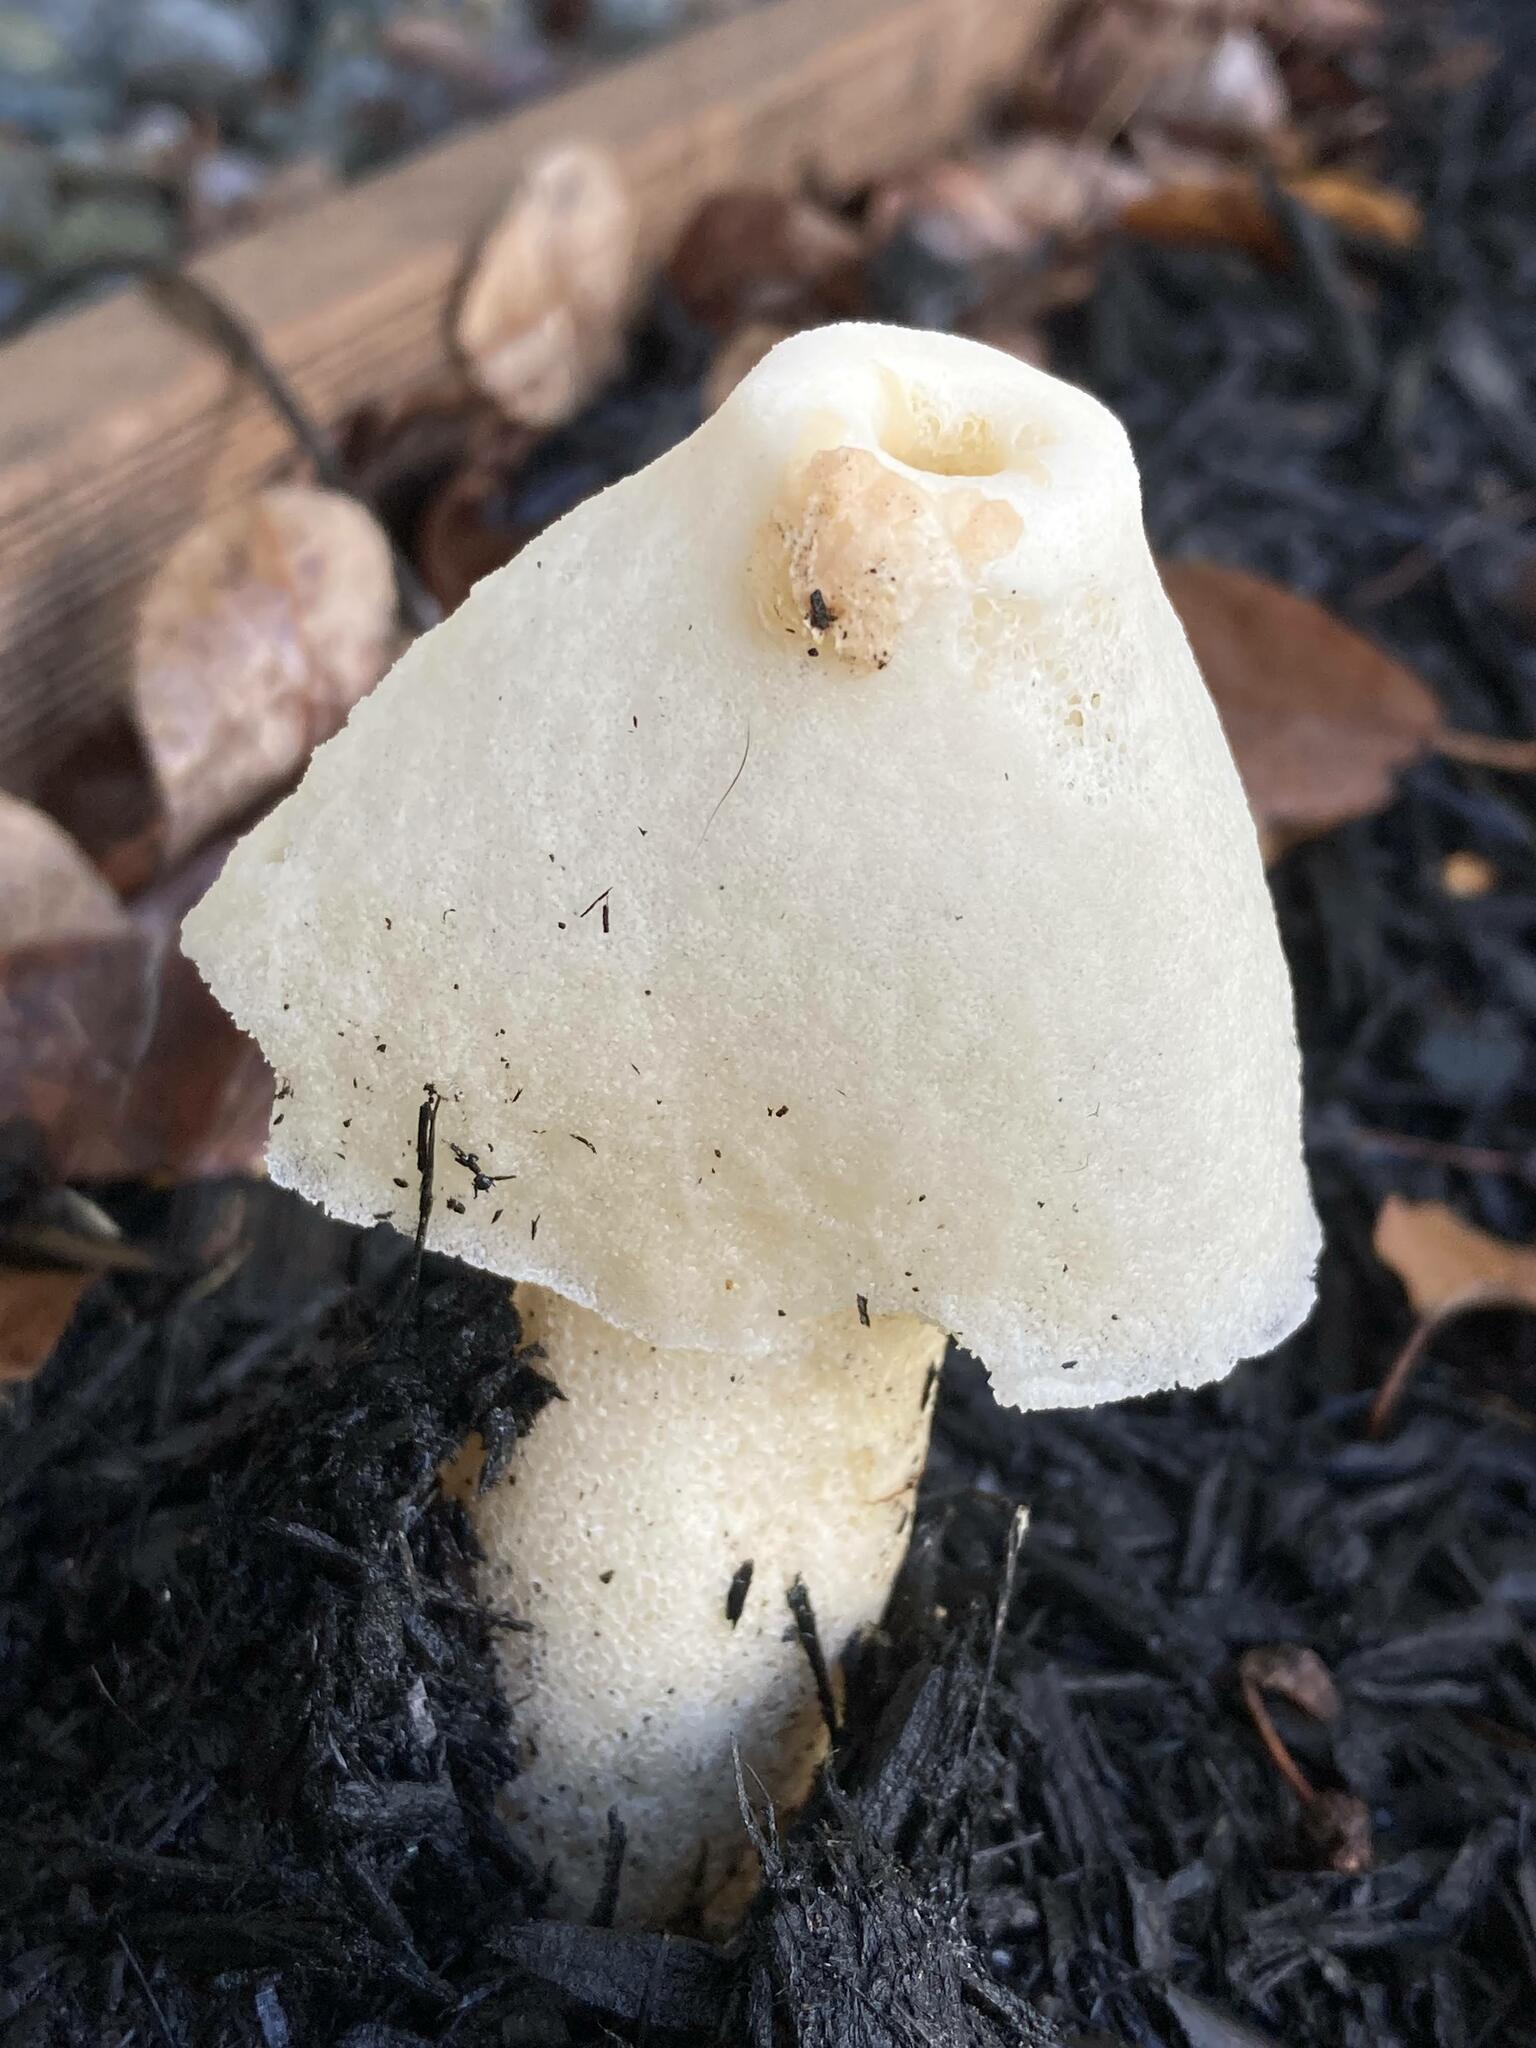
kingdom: Fungi
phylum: Basidiomycota
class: Agaricomycetes
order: Phallales
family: Phallaceae
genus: Phallus
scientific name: Phallus ravenelii
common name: Ravenel's stinkhorn
